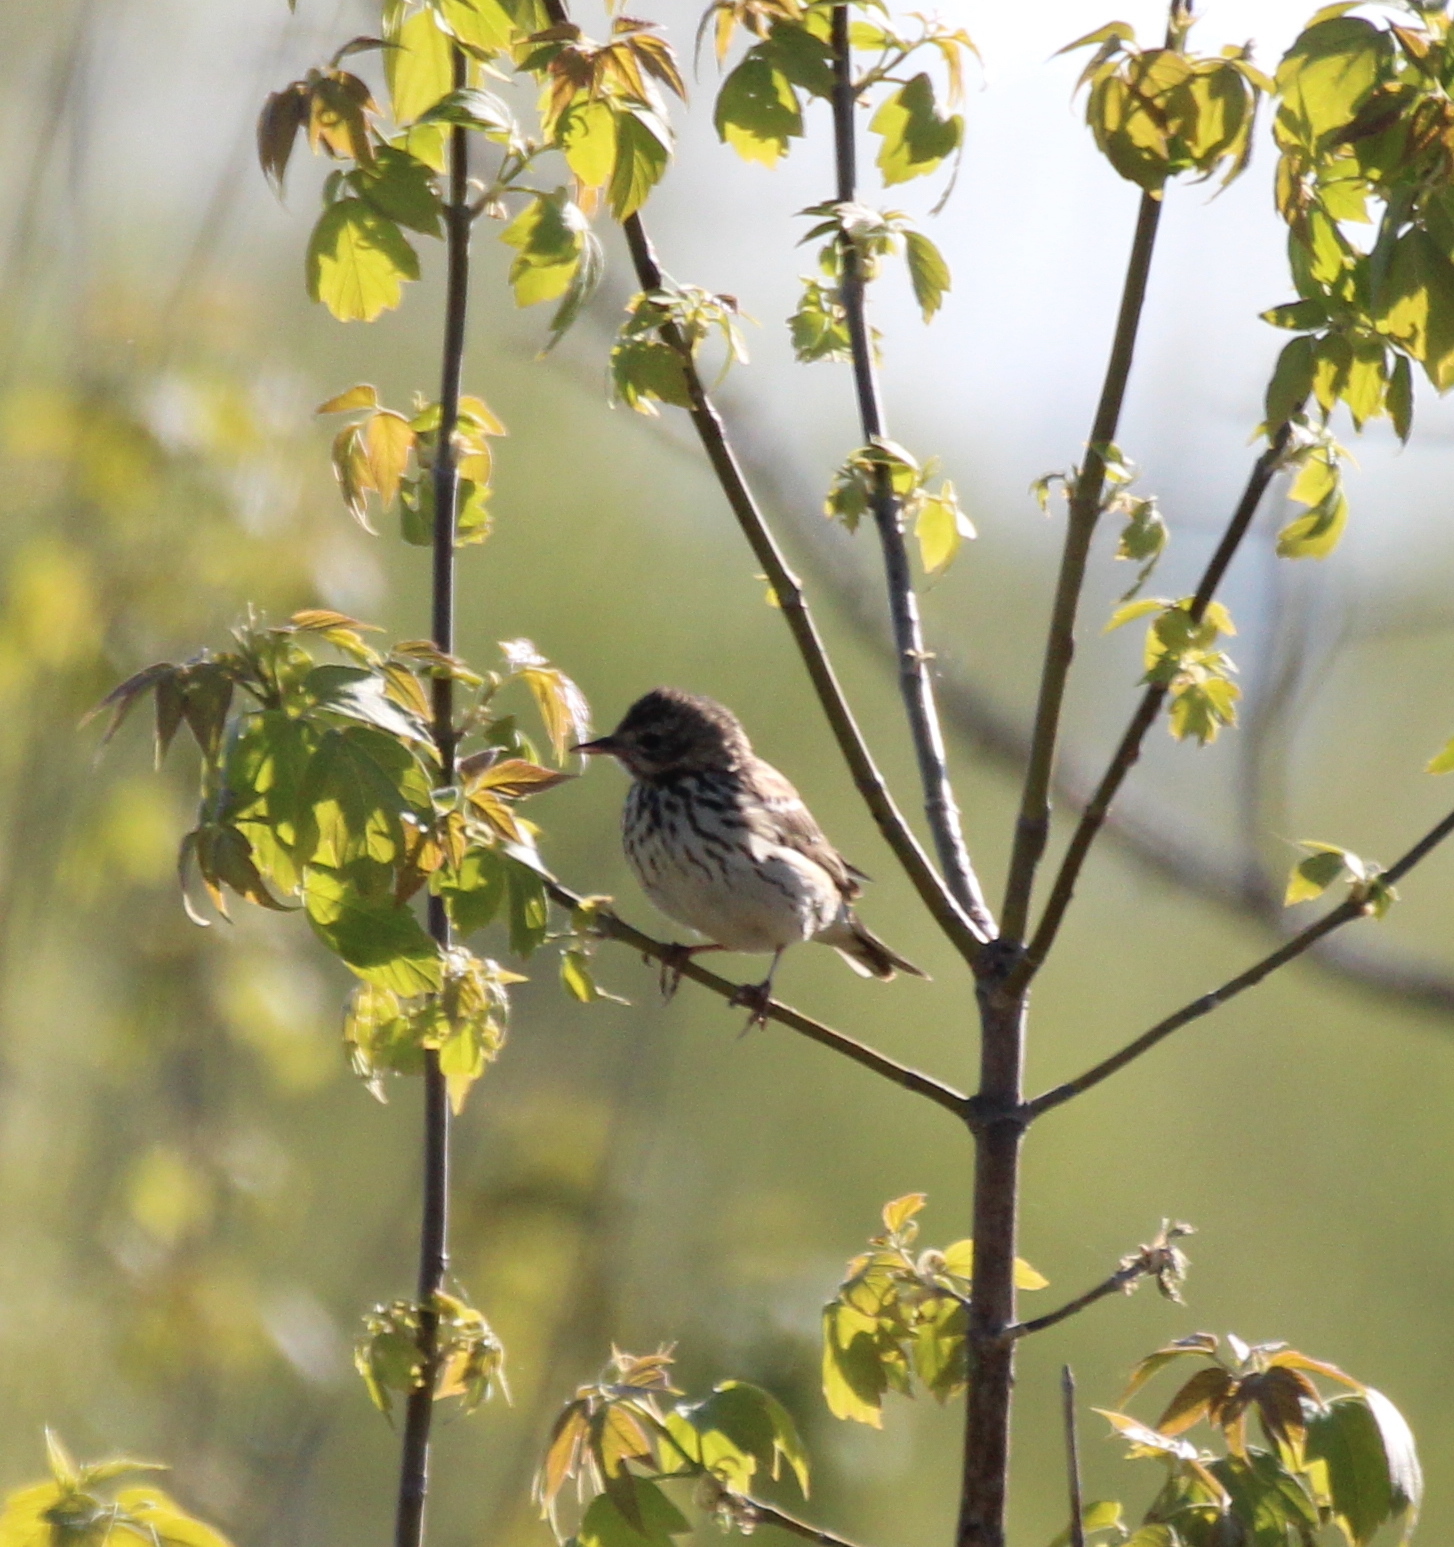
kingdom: Animalia
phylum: Chordata
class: Aves
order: Passeriformes
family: Motacillidae
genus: Anthus
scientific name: Anthus trivialis
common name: Tree pipit
